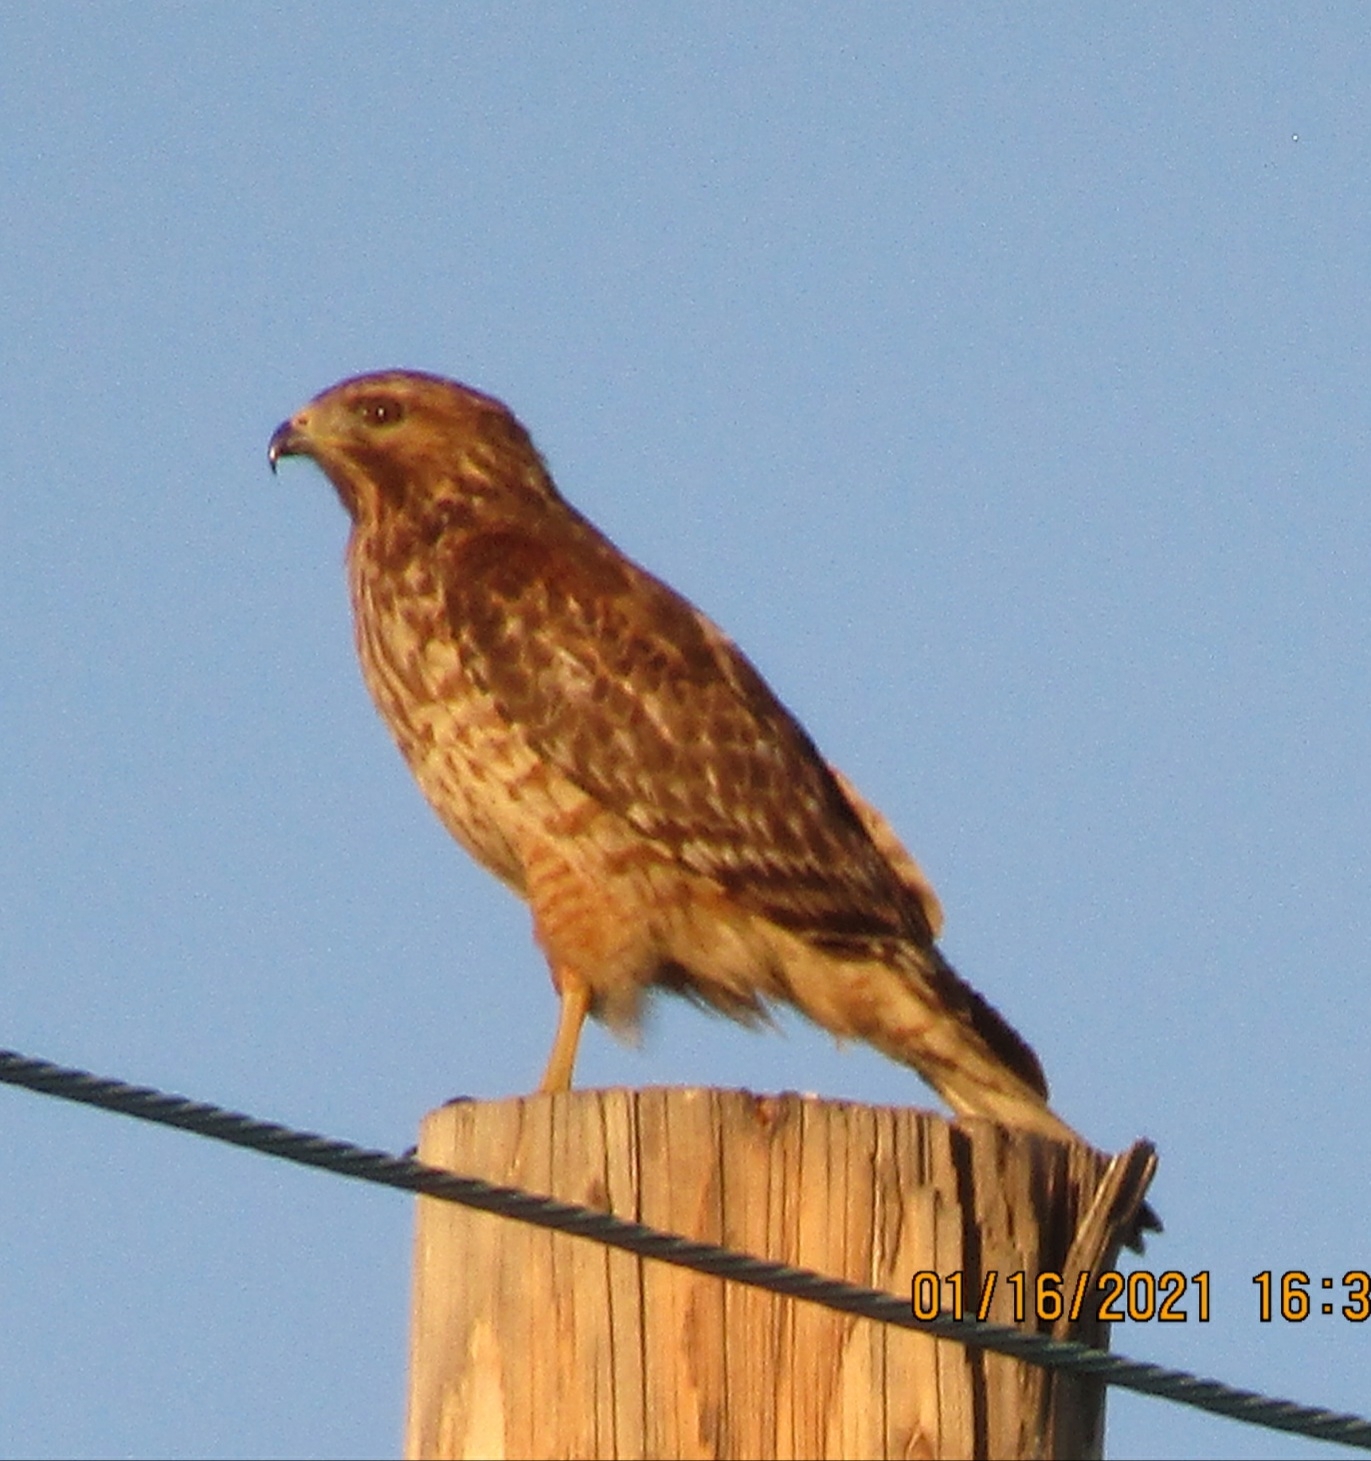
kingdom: Animalia
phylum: Chordata
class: Aves
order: Accipitriformes
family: Accipitridae
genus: Buteo
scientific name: Buteo lineatus
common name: Red-shouldered hawk
